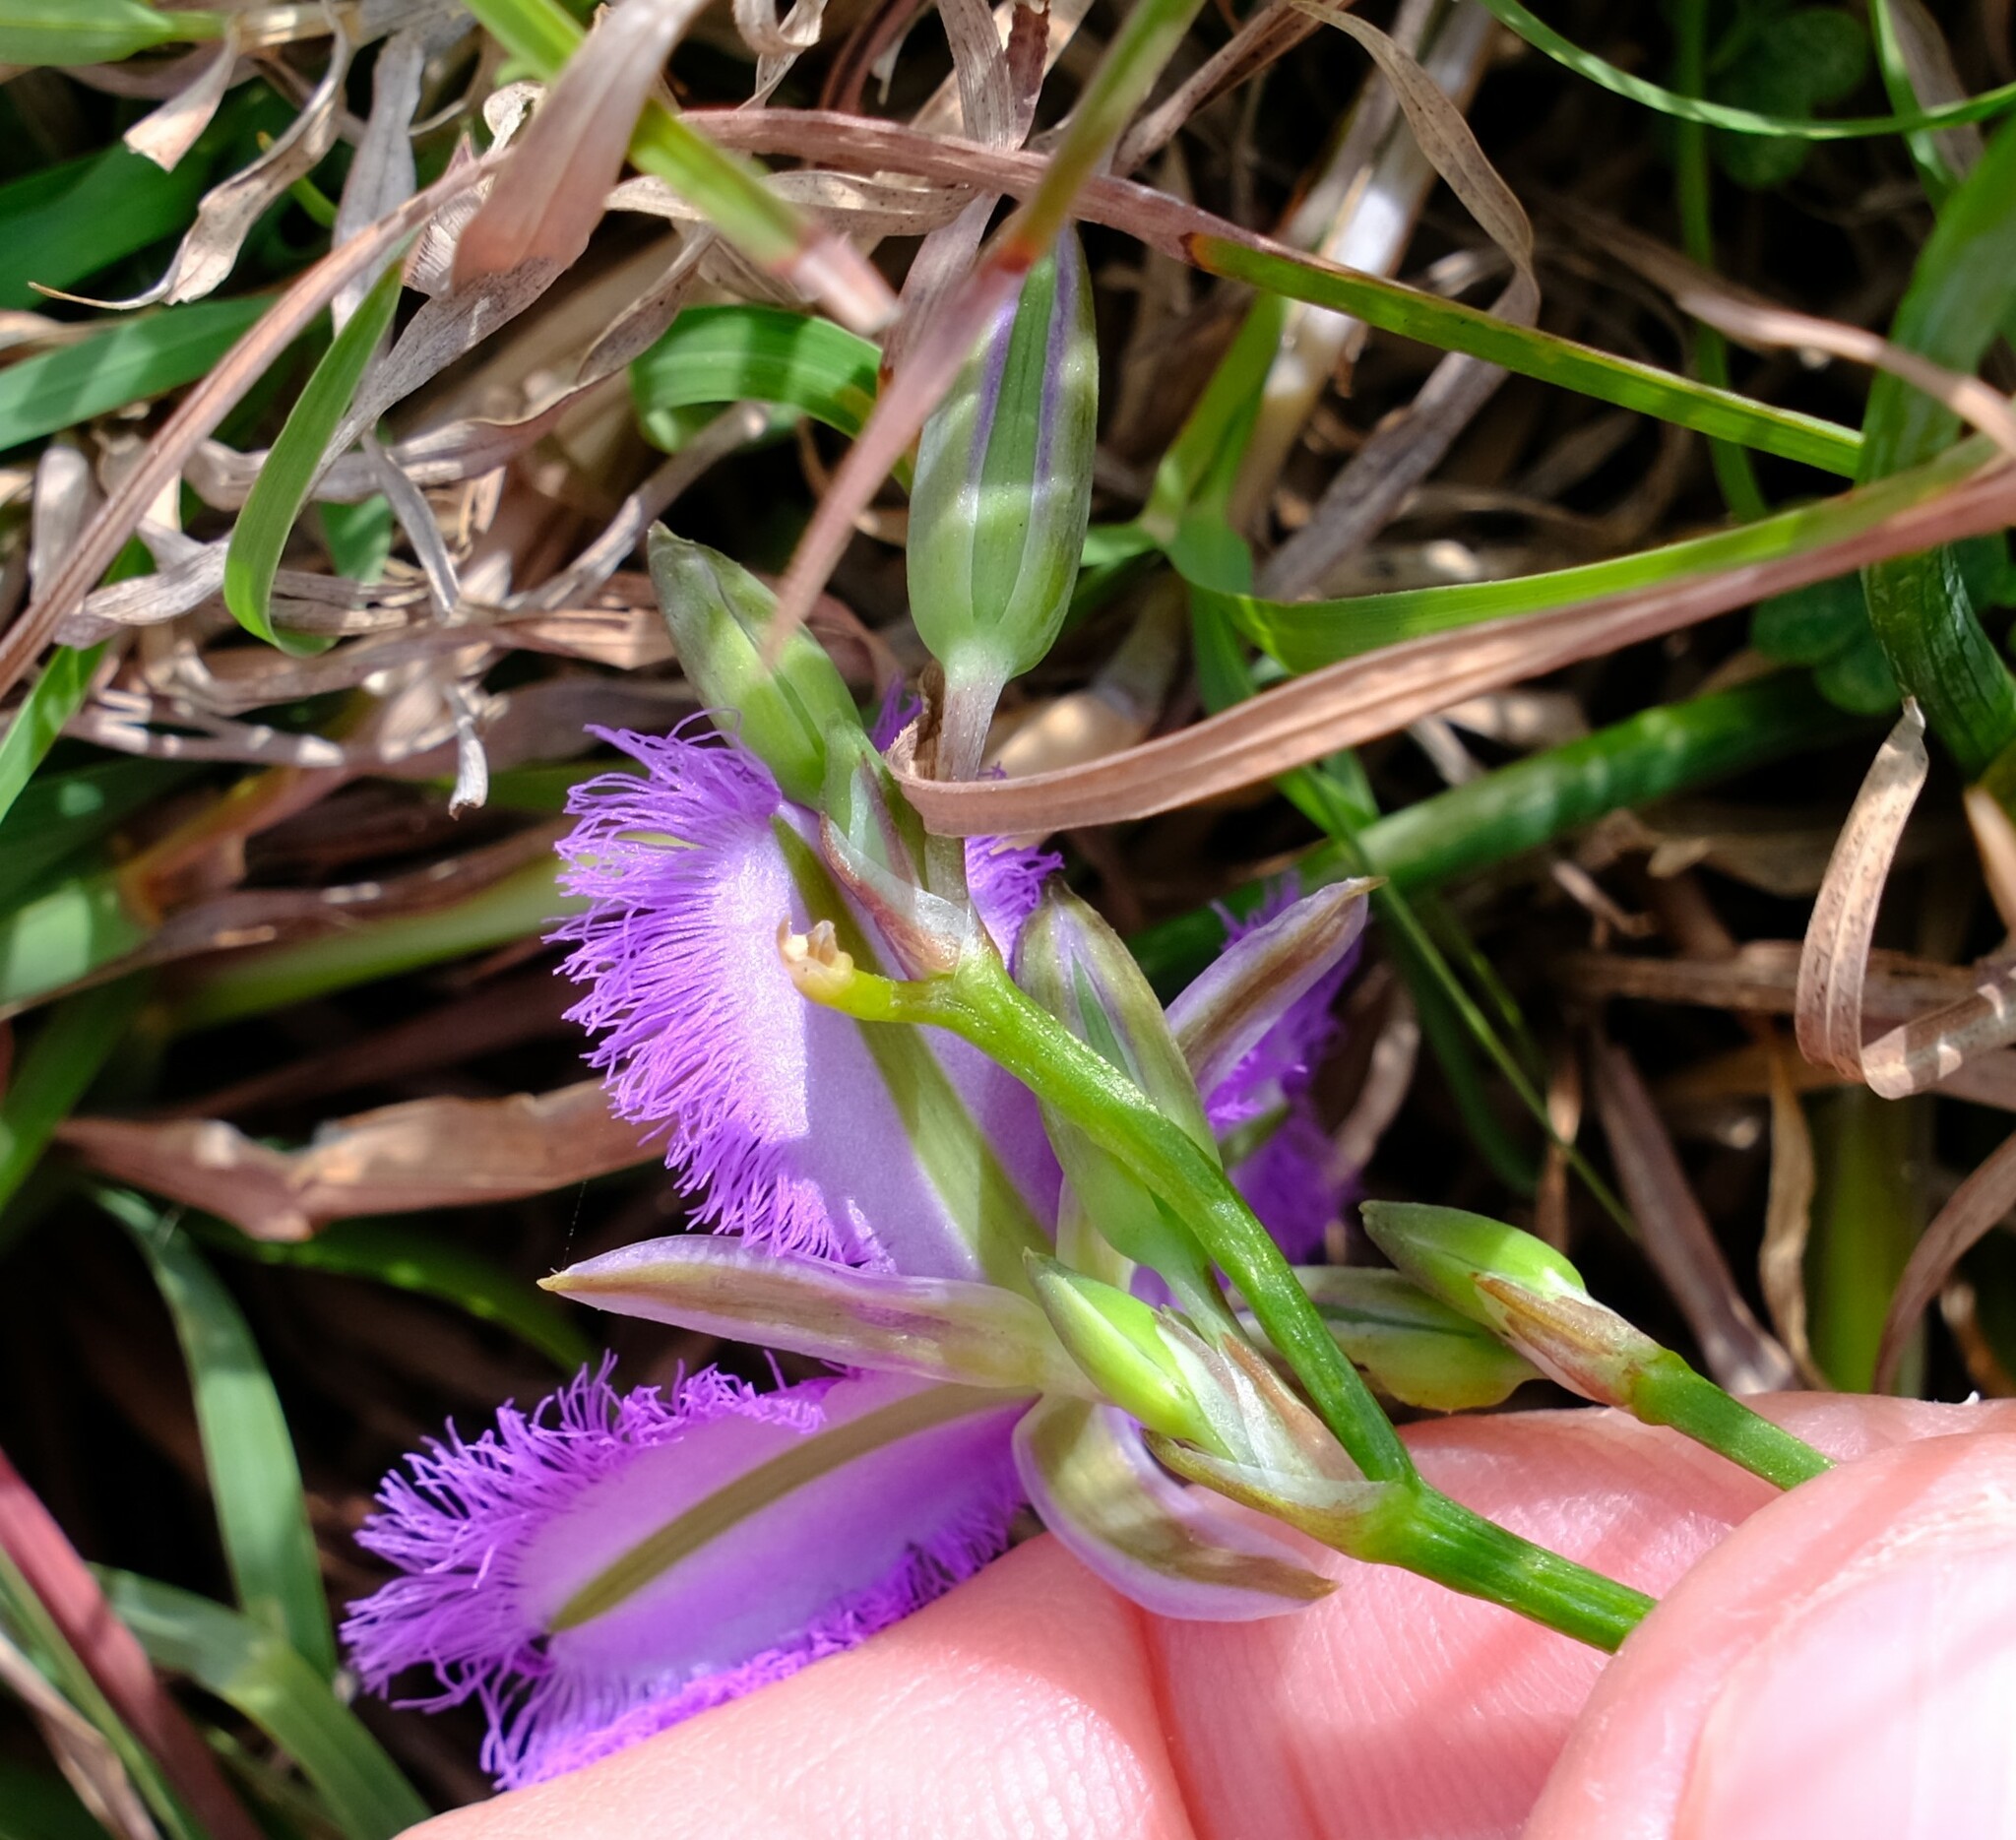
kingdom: Plantae
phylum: Tracheophyta
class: Liliopsida
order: Asparagales
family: Asparagaceae
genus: Thysanotus
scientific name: Thysanotus tuberosus
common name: Common fringed-lily
